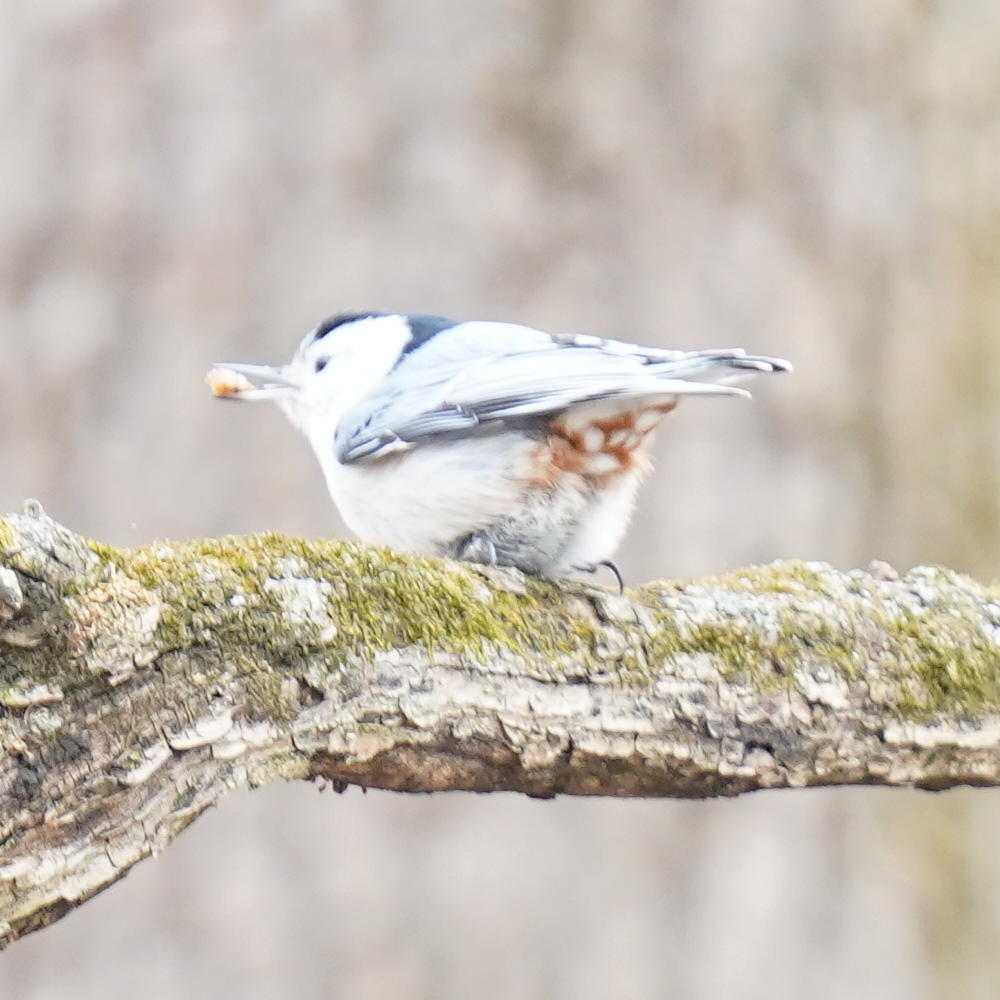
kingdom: Animalia
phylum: Chordata
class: Aves
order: Passeriformes
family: Sittidae
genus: Sitta
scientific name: Sitta carolinensis
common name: White-breasted nuthatch
